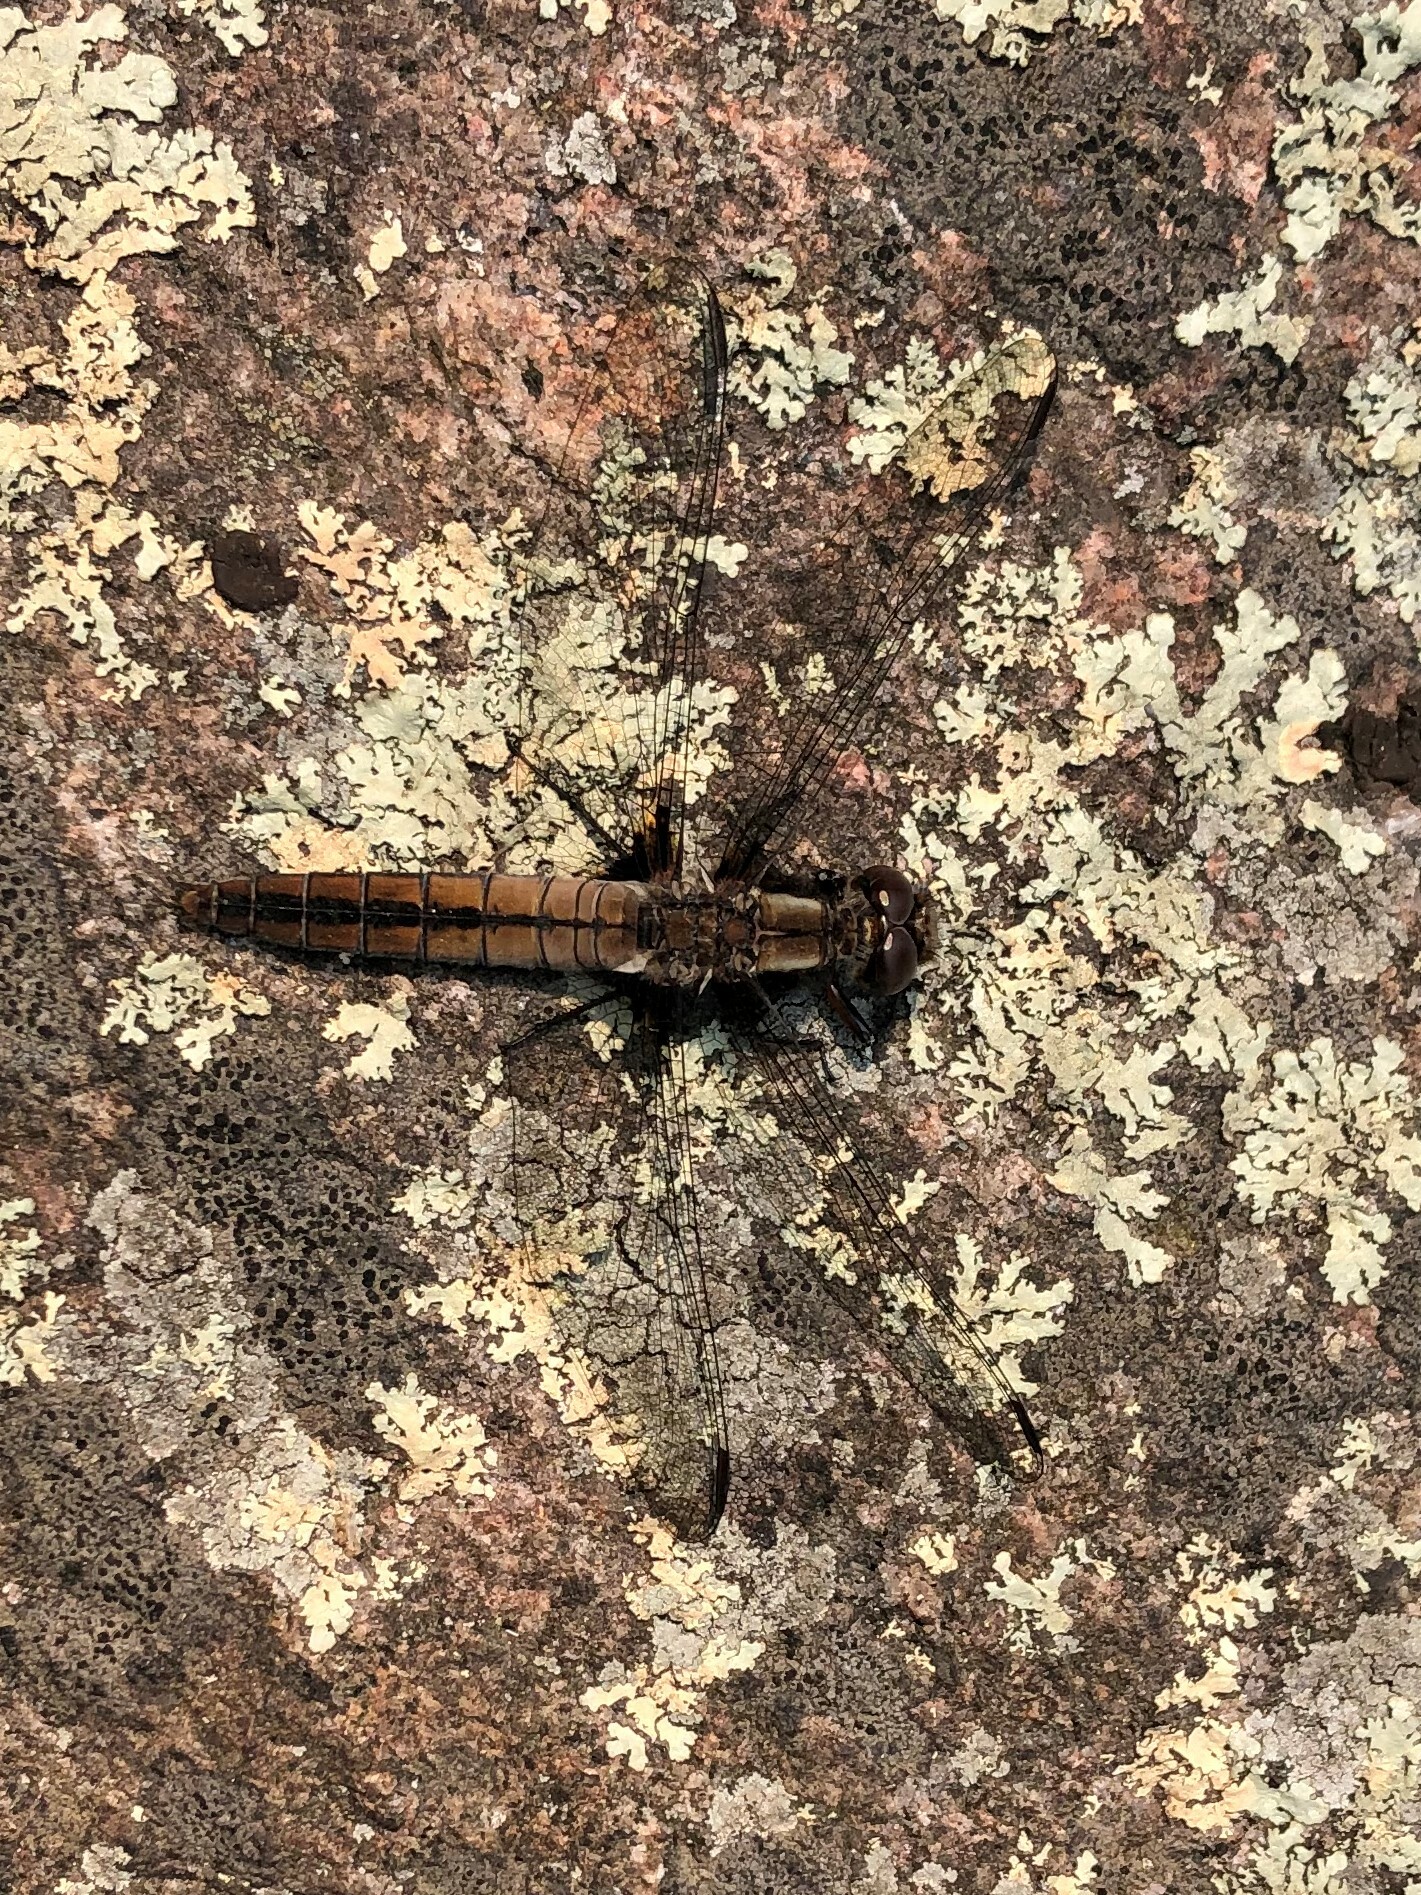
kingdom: Animalia
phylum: Arthropoda
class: Insecta
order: Odonata
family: Libellulidae
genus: Ladona
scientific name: Ladona julia
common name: Chalk-fronted corporal
